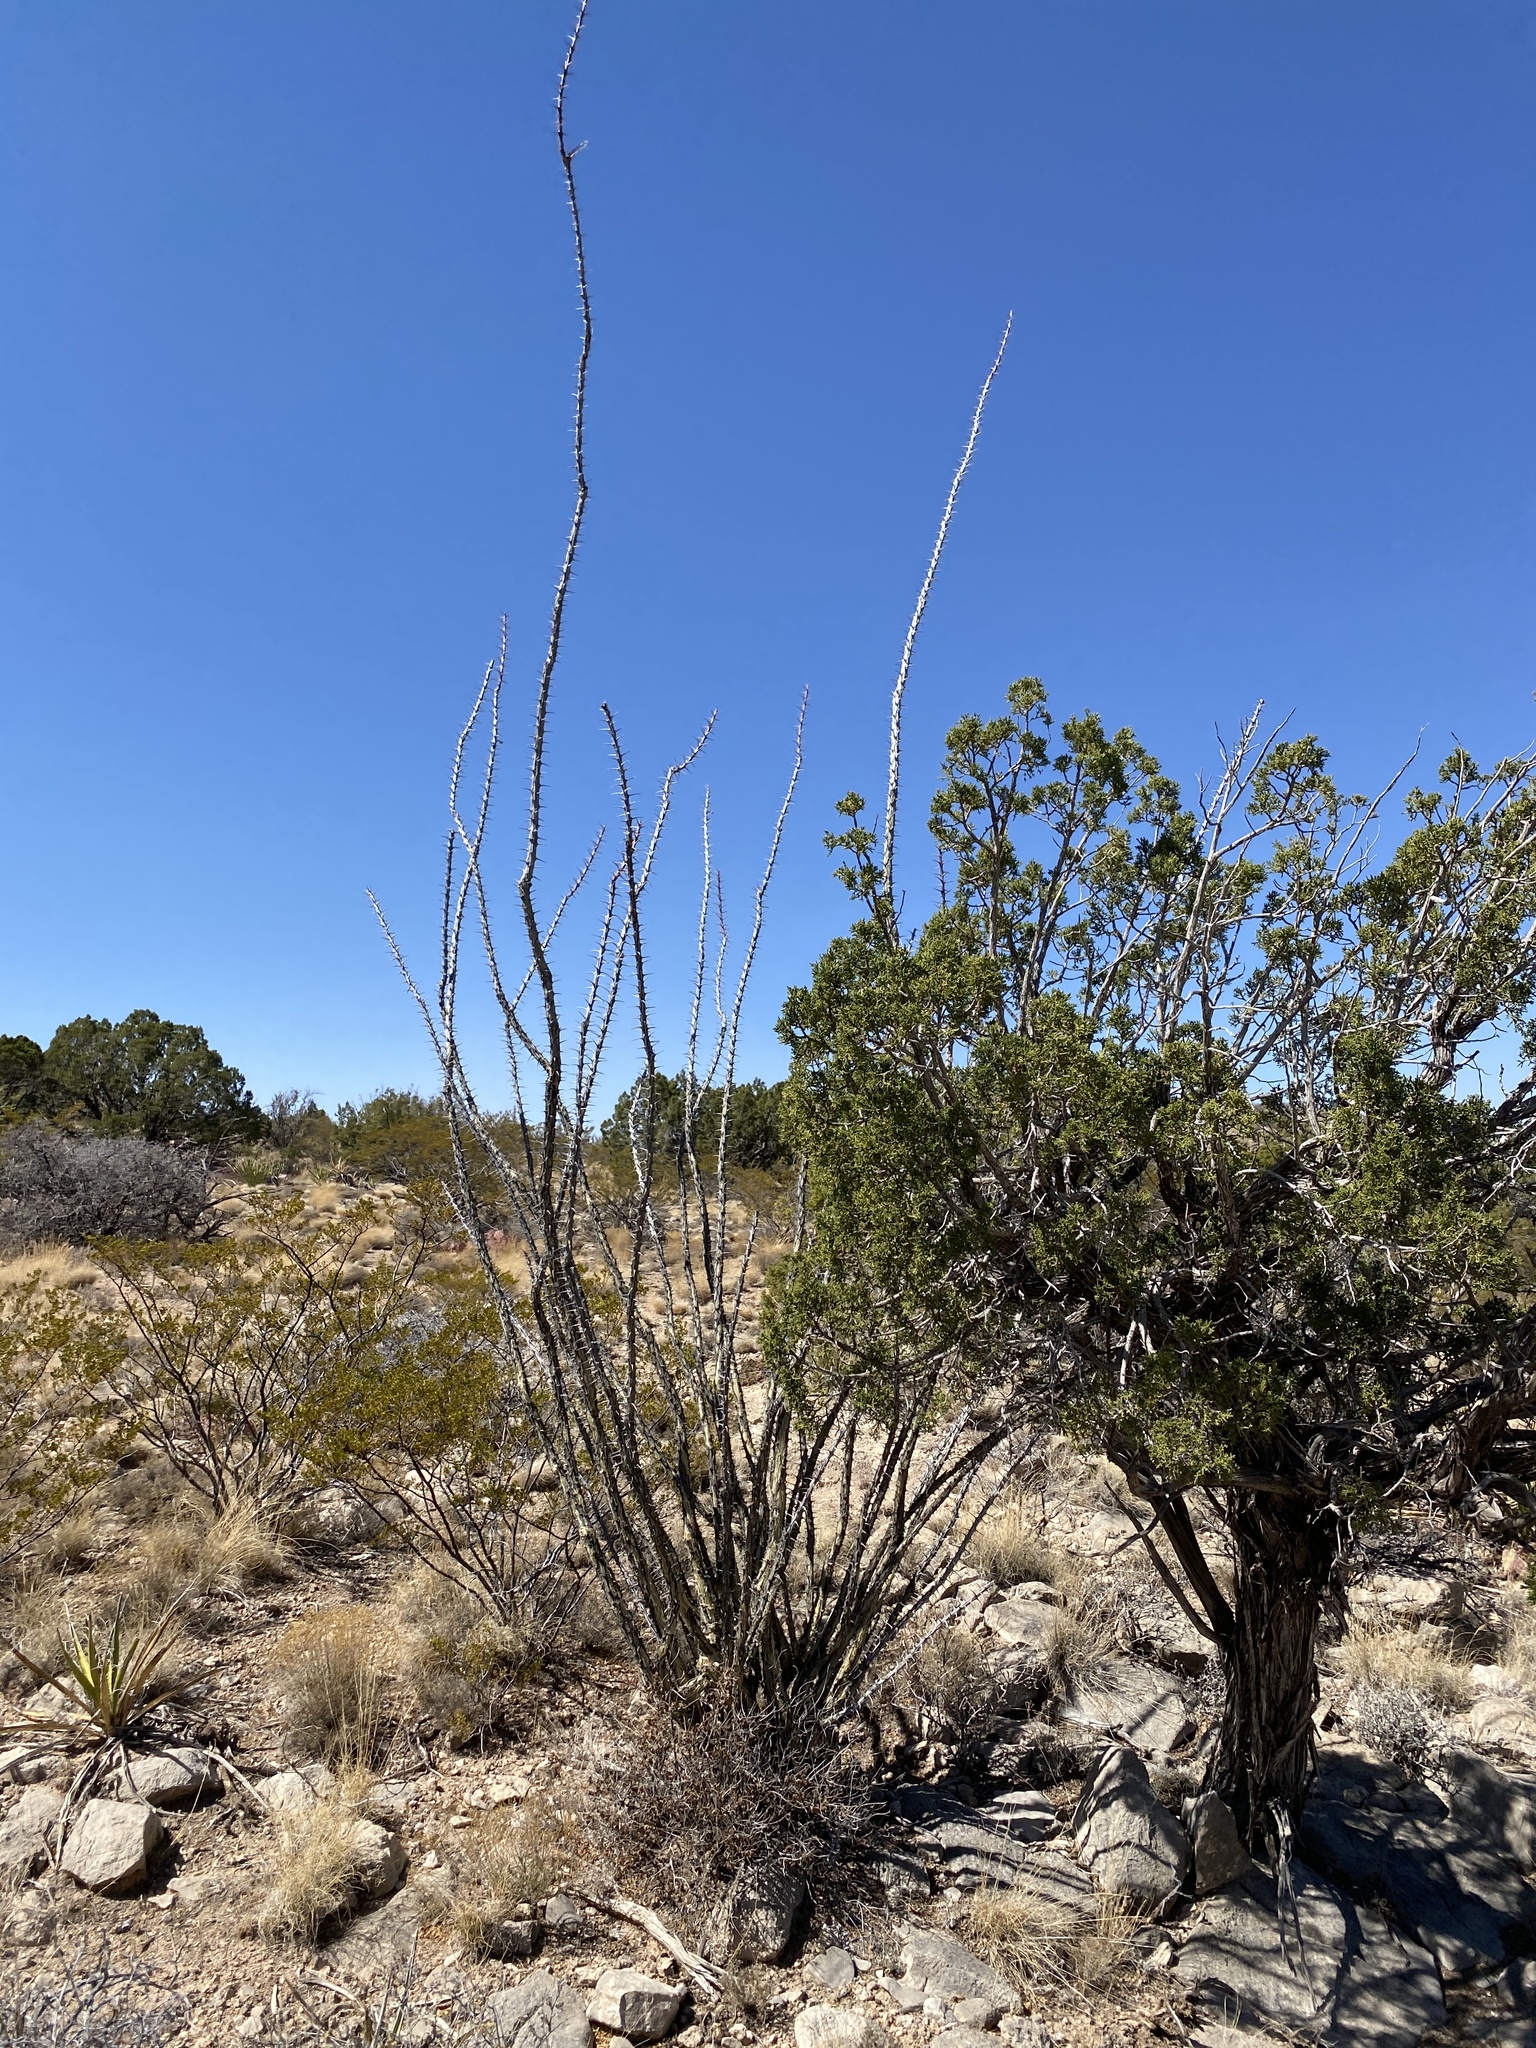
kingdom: Plantae
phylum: Tracheophyta
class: Magnoliopsida
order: Ericales
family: Fouquieriaceae
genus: Fouquieria
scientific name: Fouquieria splendens
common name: Vine-cactus
